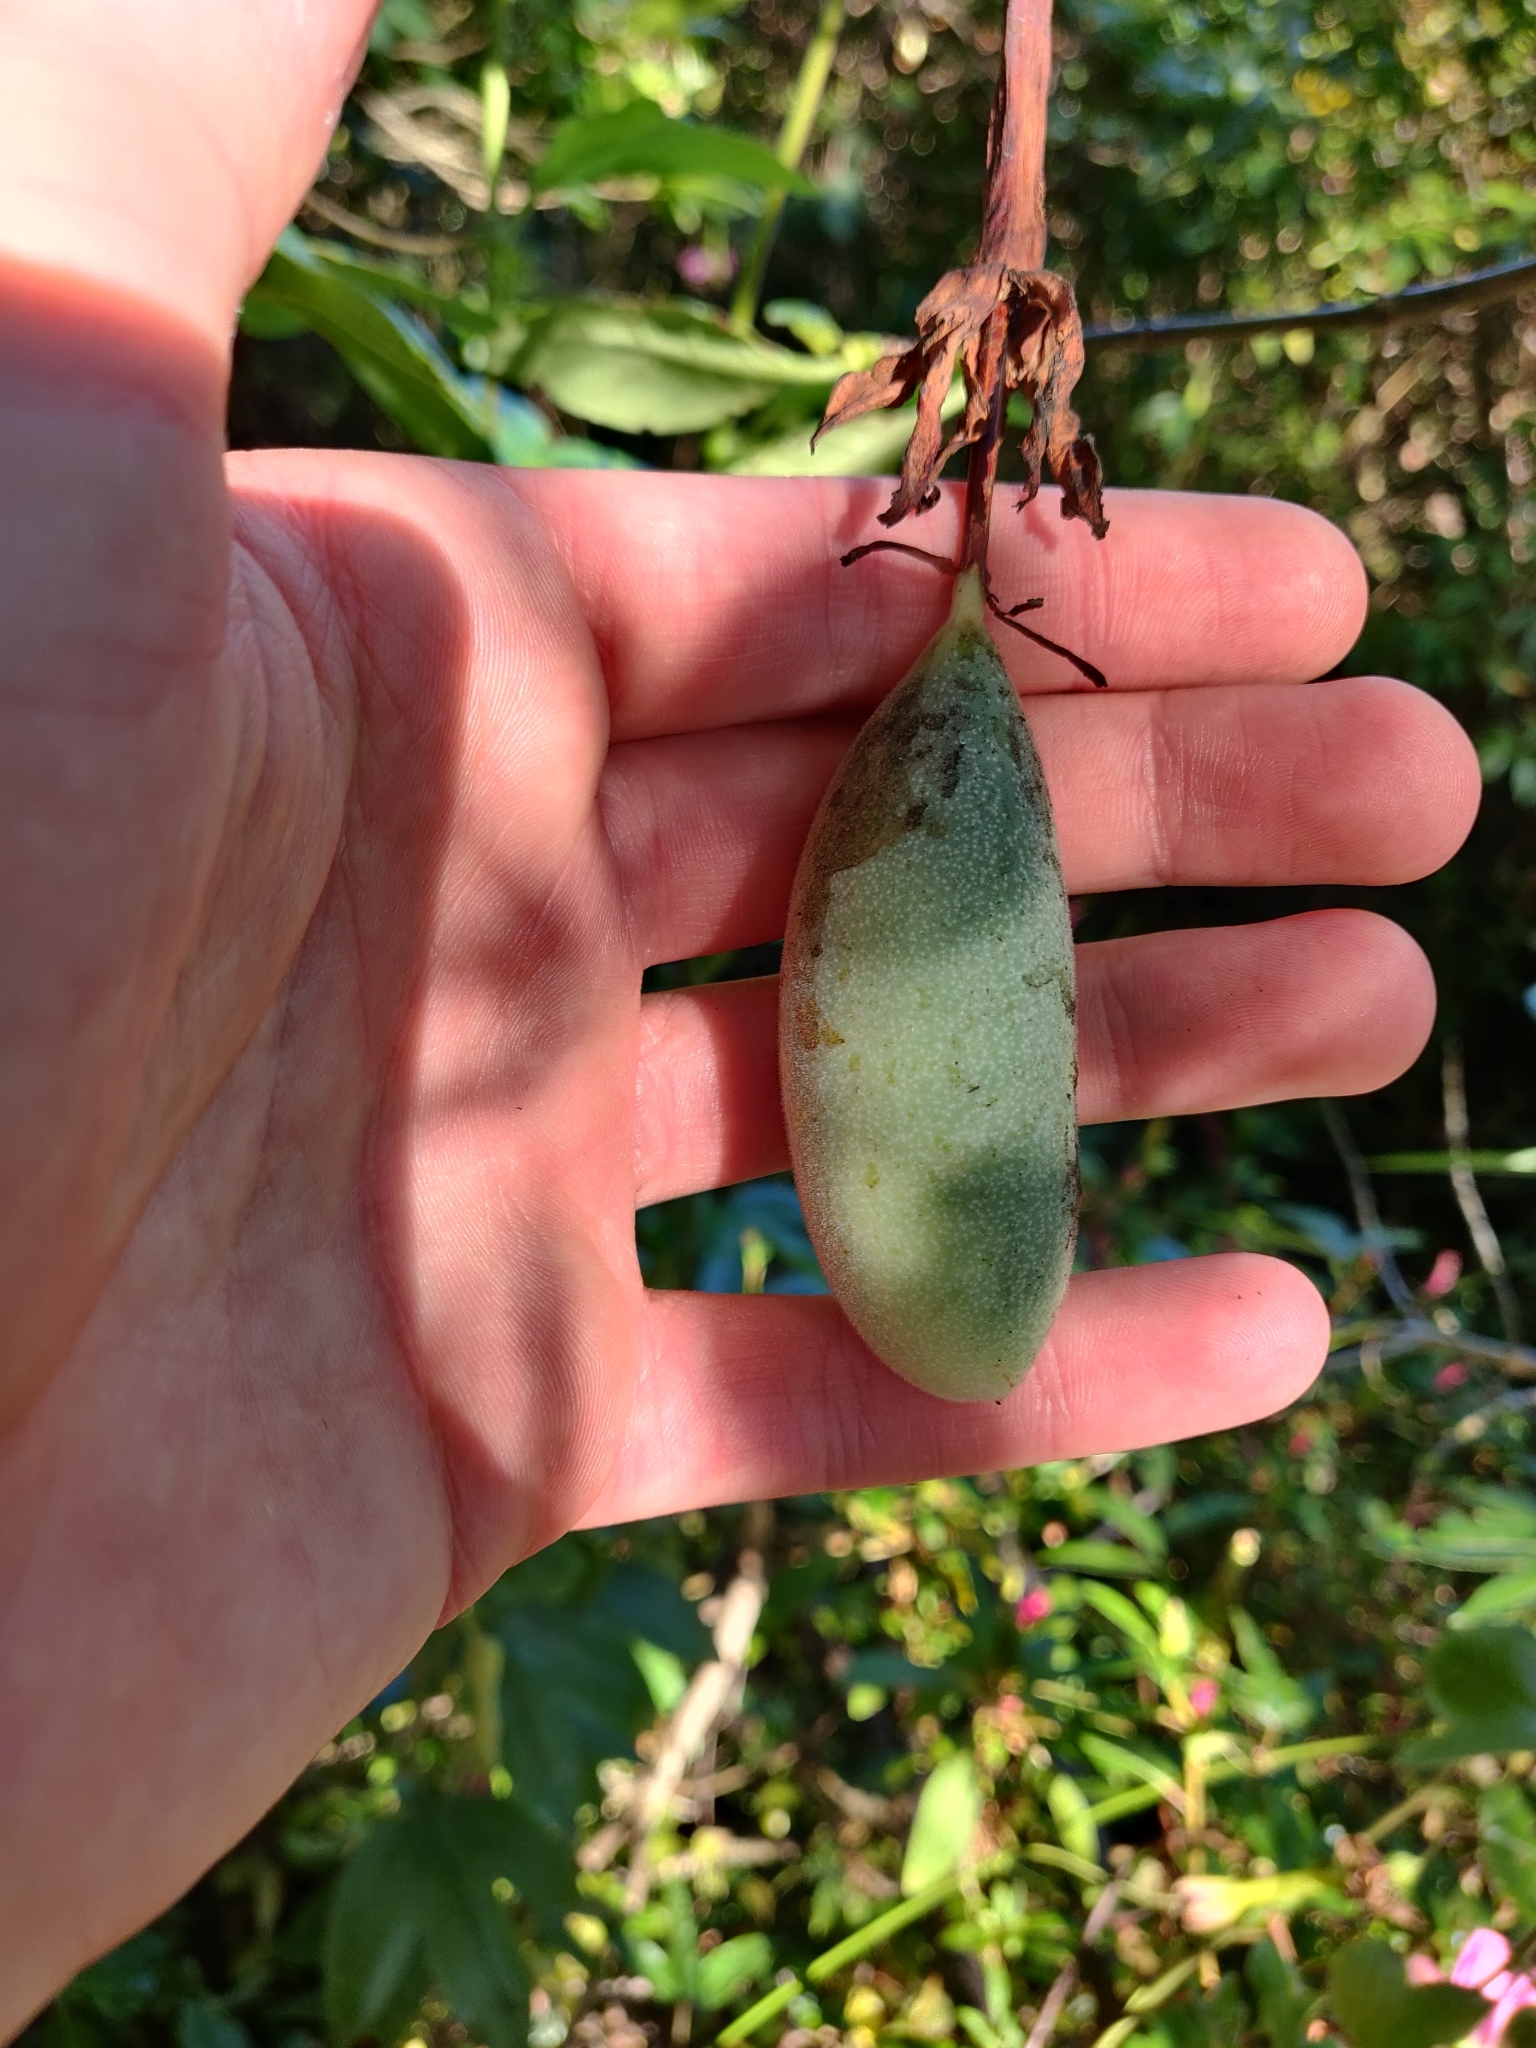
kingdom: Plantae
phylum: Tracheophyta
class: Magnoliopsida
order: Malpighiales
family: Passifloraceae
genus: Passiflora
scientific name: Passiflora tarminiana
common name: Banana poka
